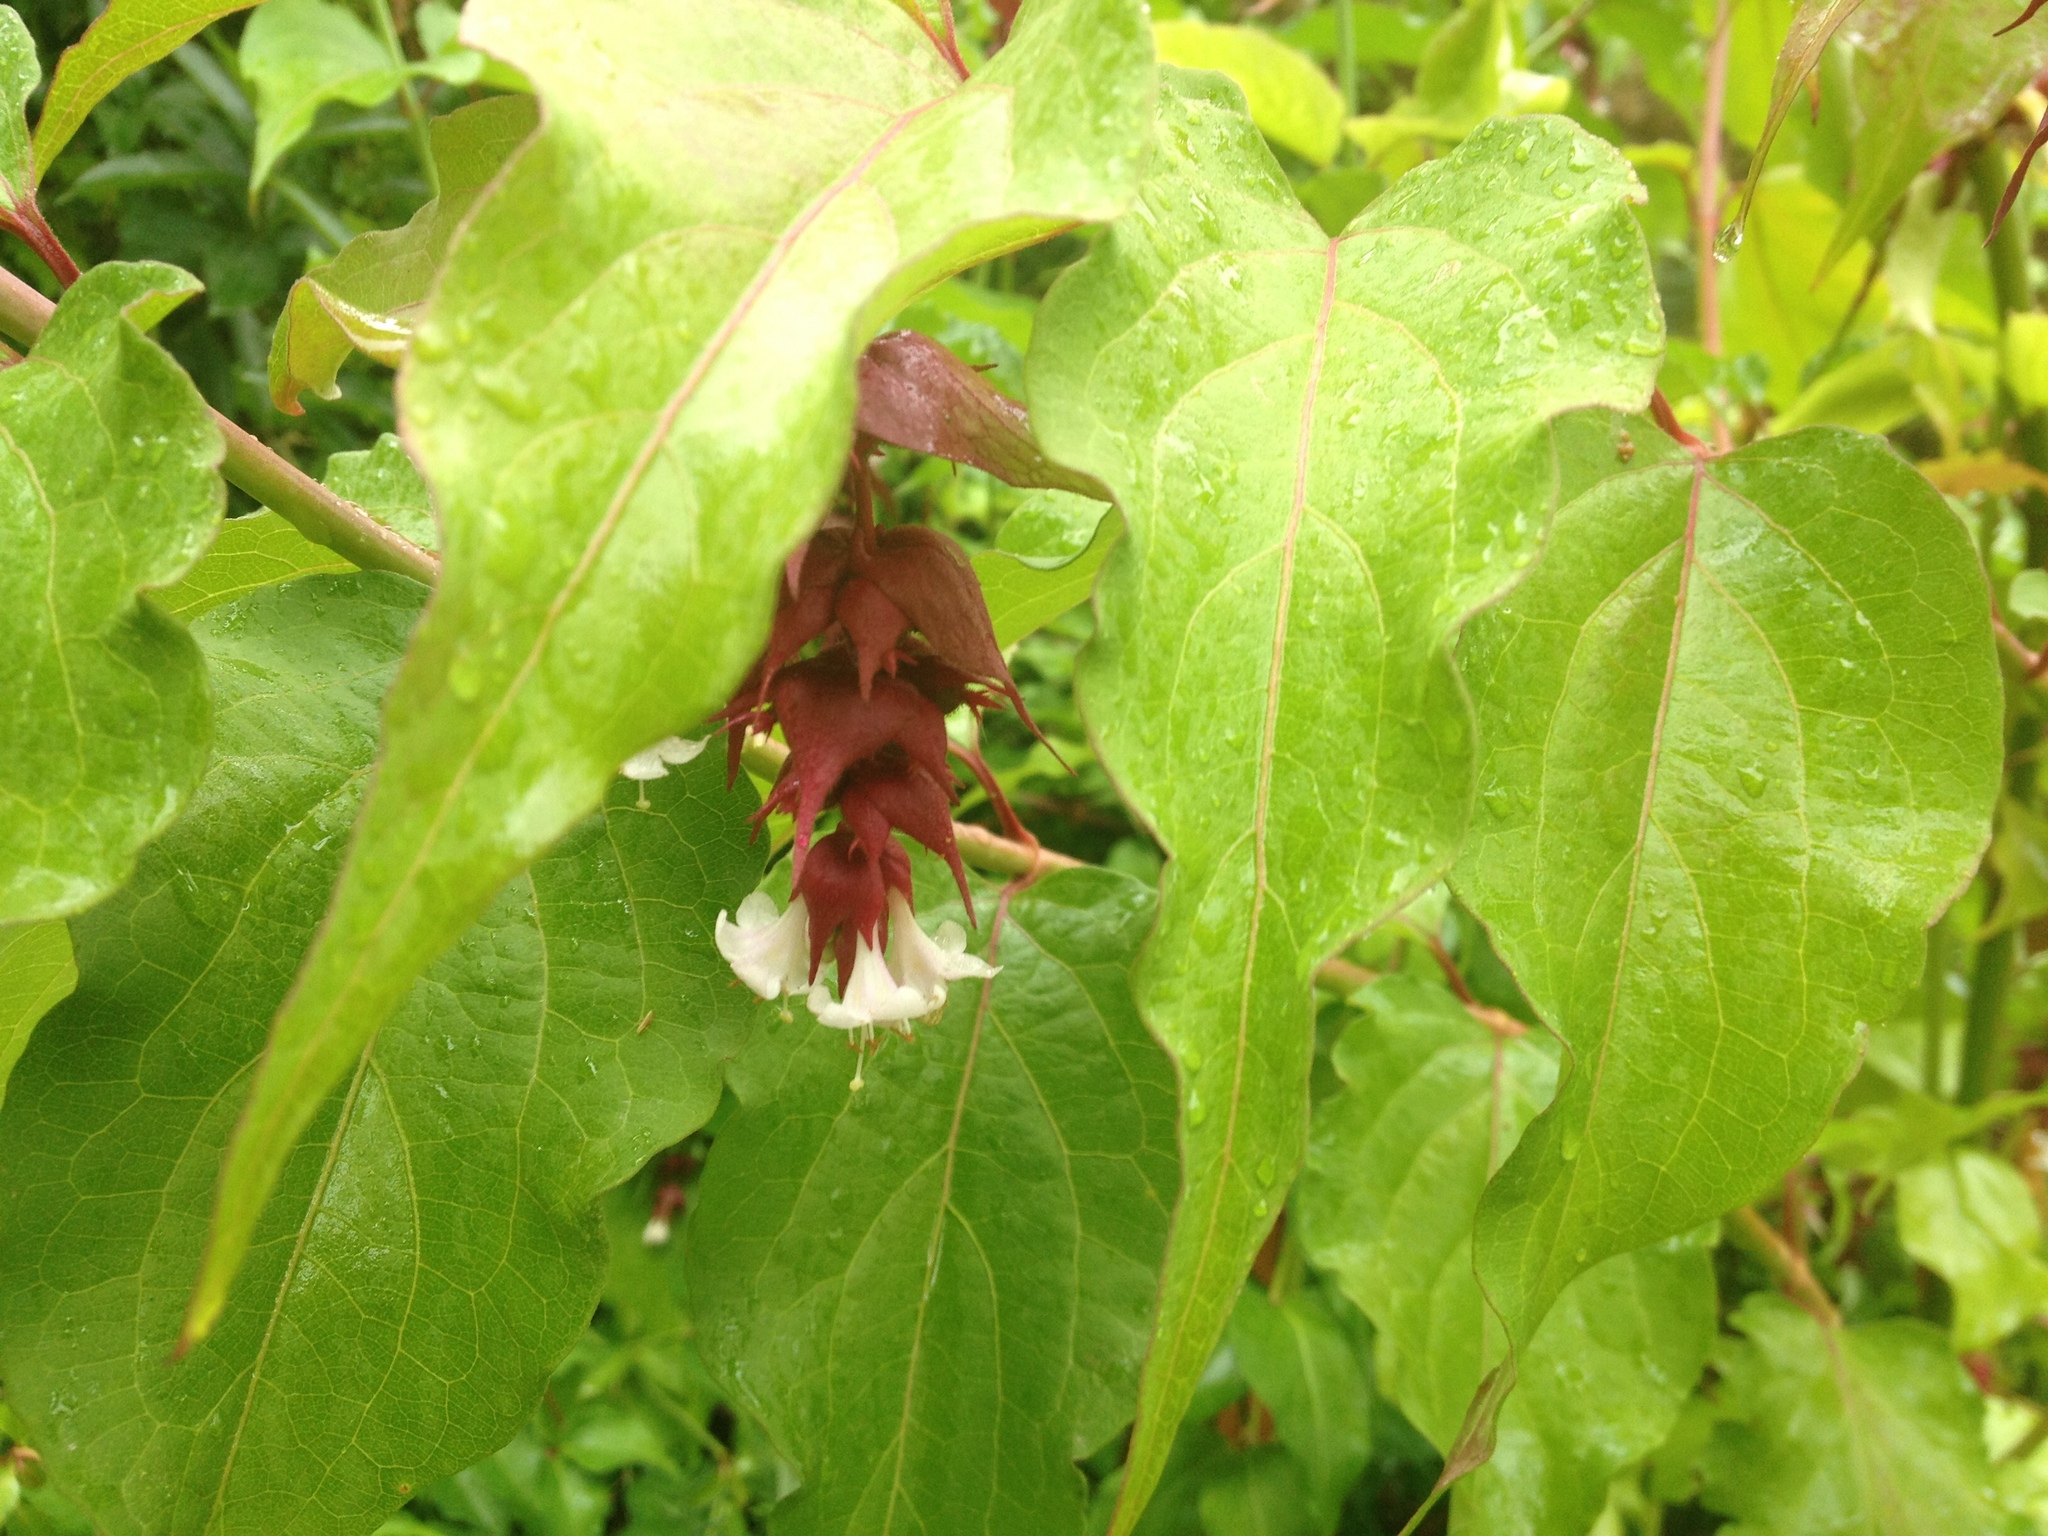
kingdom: Plantae
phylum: Tracheophyta
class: Magnoliopsida
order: Dipsacales
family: Caprifoliaceae
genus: Leycesteria
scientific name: Leycesteria formosa
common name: Himalayan honeysuckle
